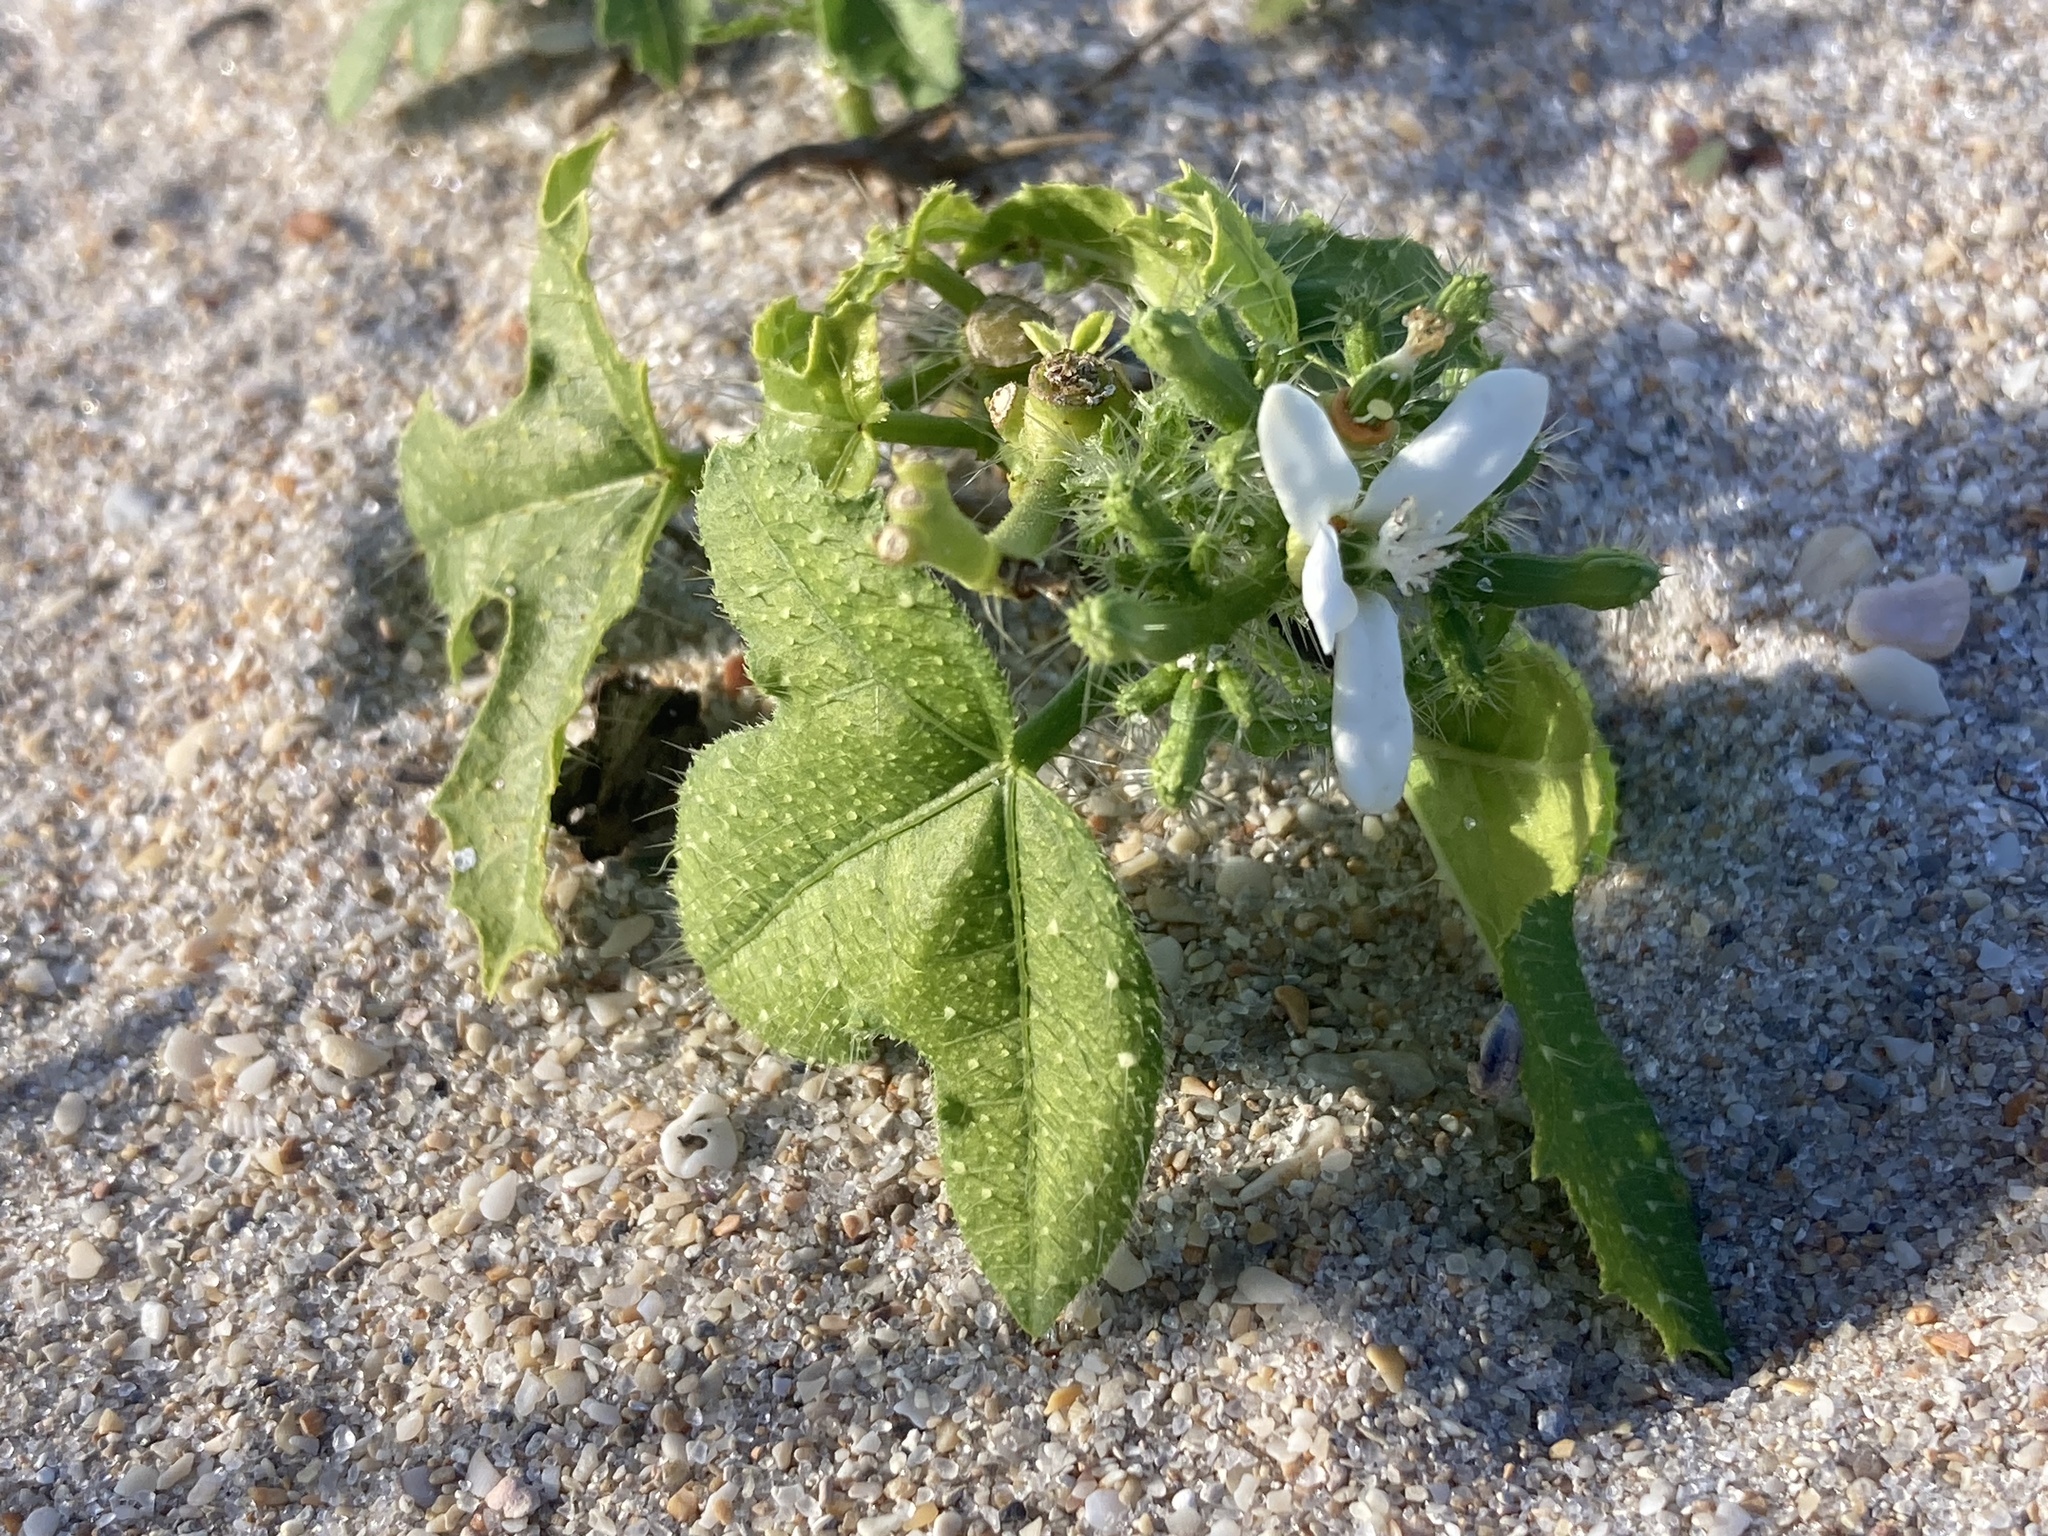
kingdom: Plantae
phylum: Tracheophyta
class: Magnoliopsida
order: Malpighiales
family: Euphorbiaceae
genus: Cnidoscolus
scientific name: Cnidoscolus stimulosus
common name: Bull-nettle
